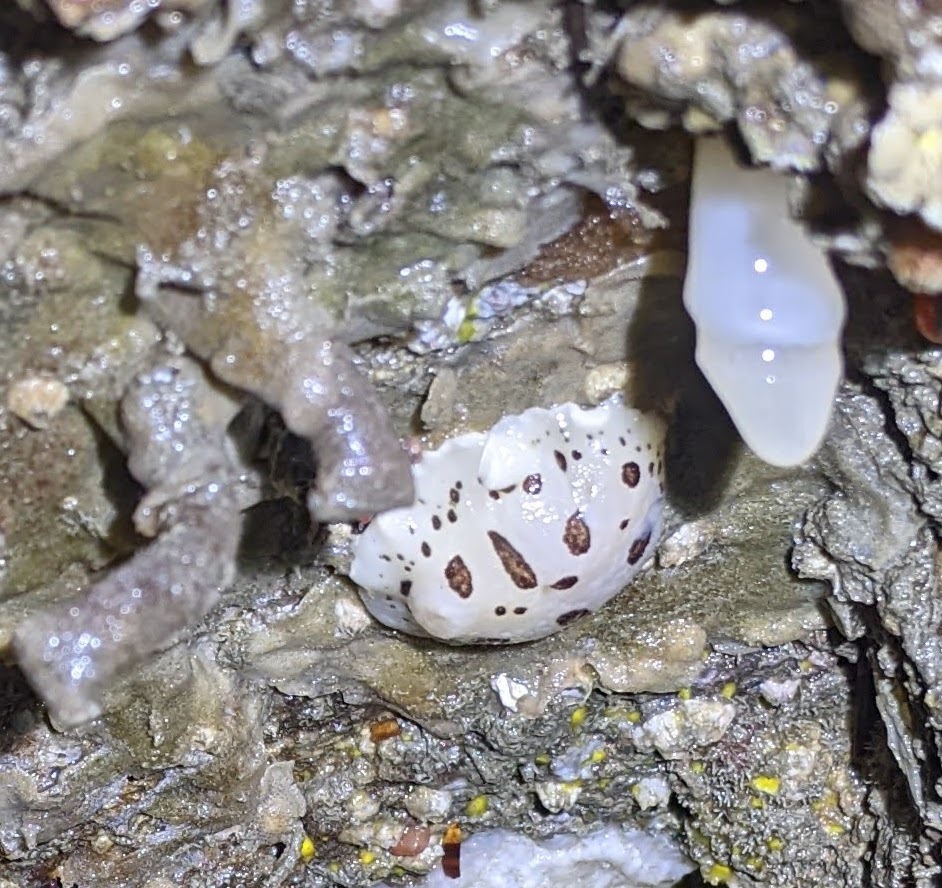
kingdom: Animalia
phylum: Mollusca
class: Gastropoda
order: Nudibranchia
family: Discodorididae
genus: Diaulula
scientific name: Diaulula odonoghuei
